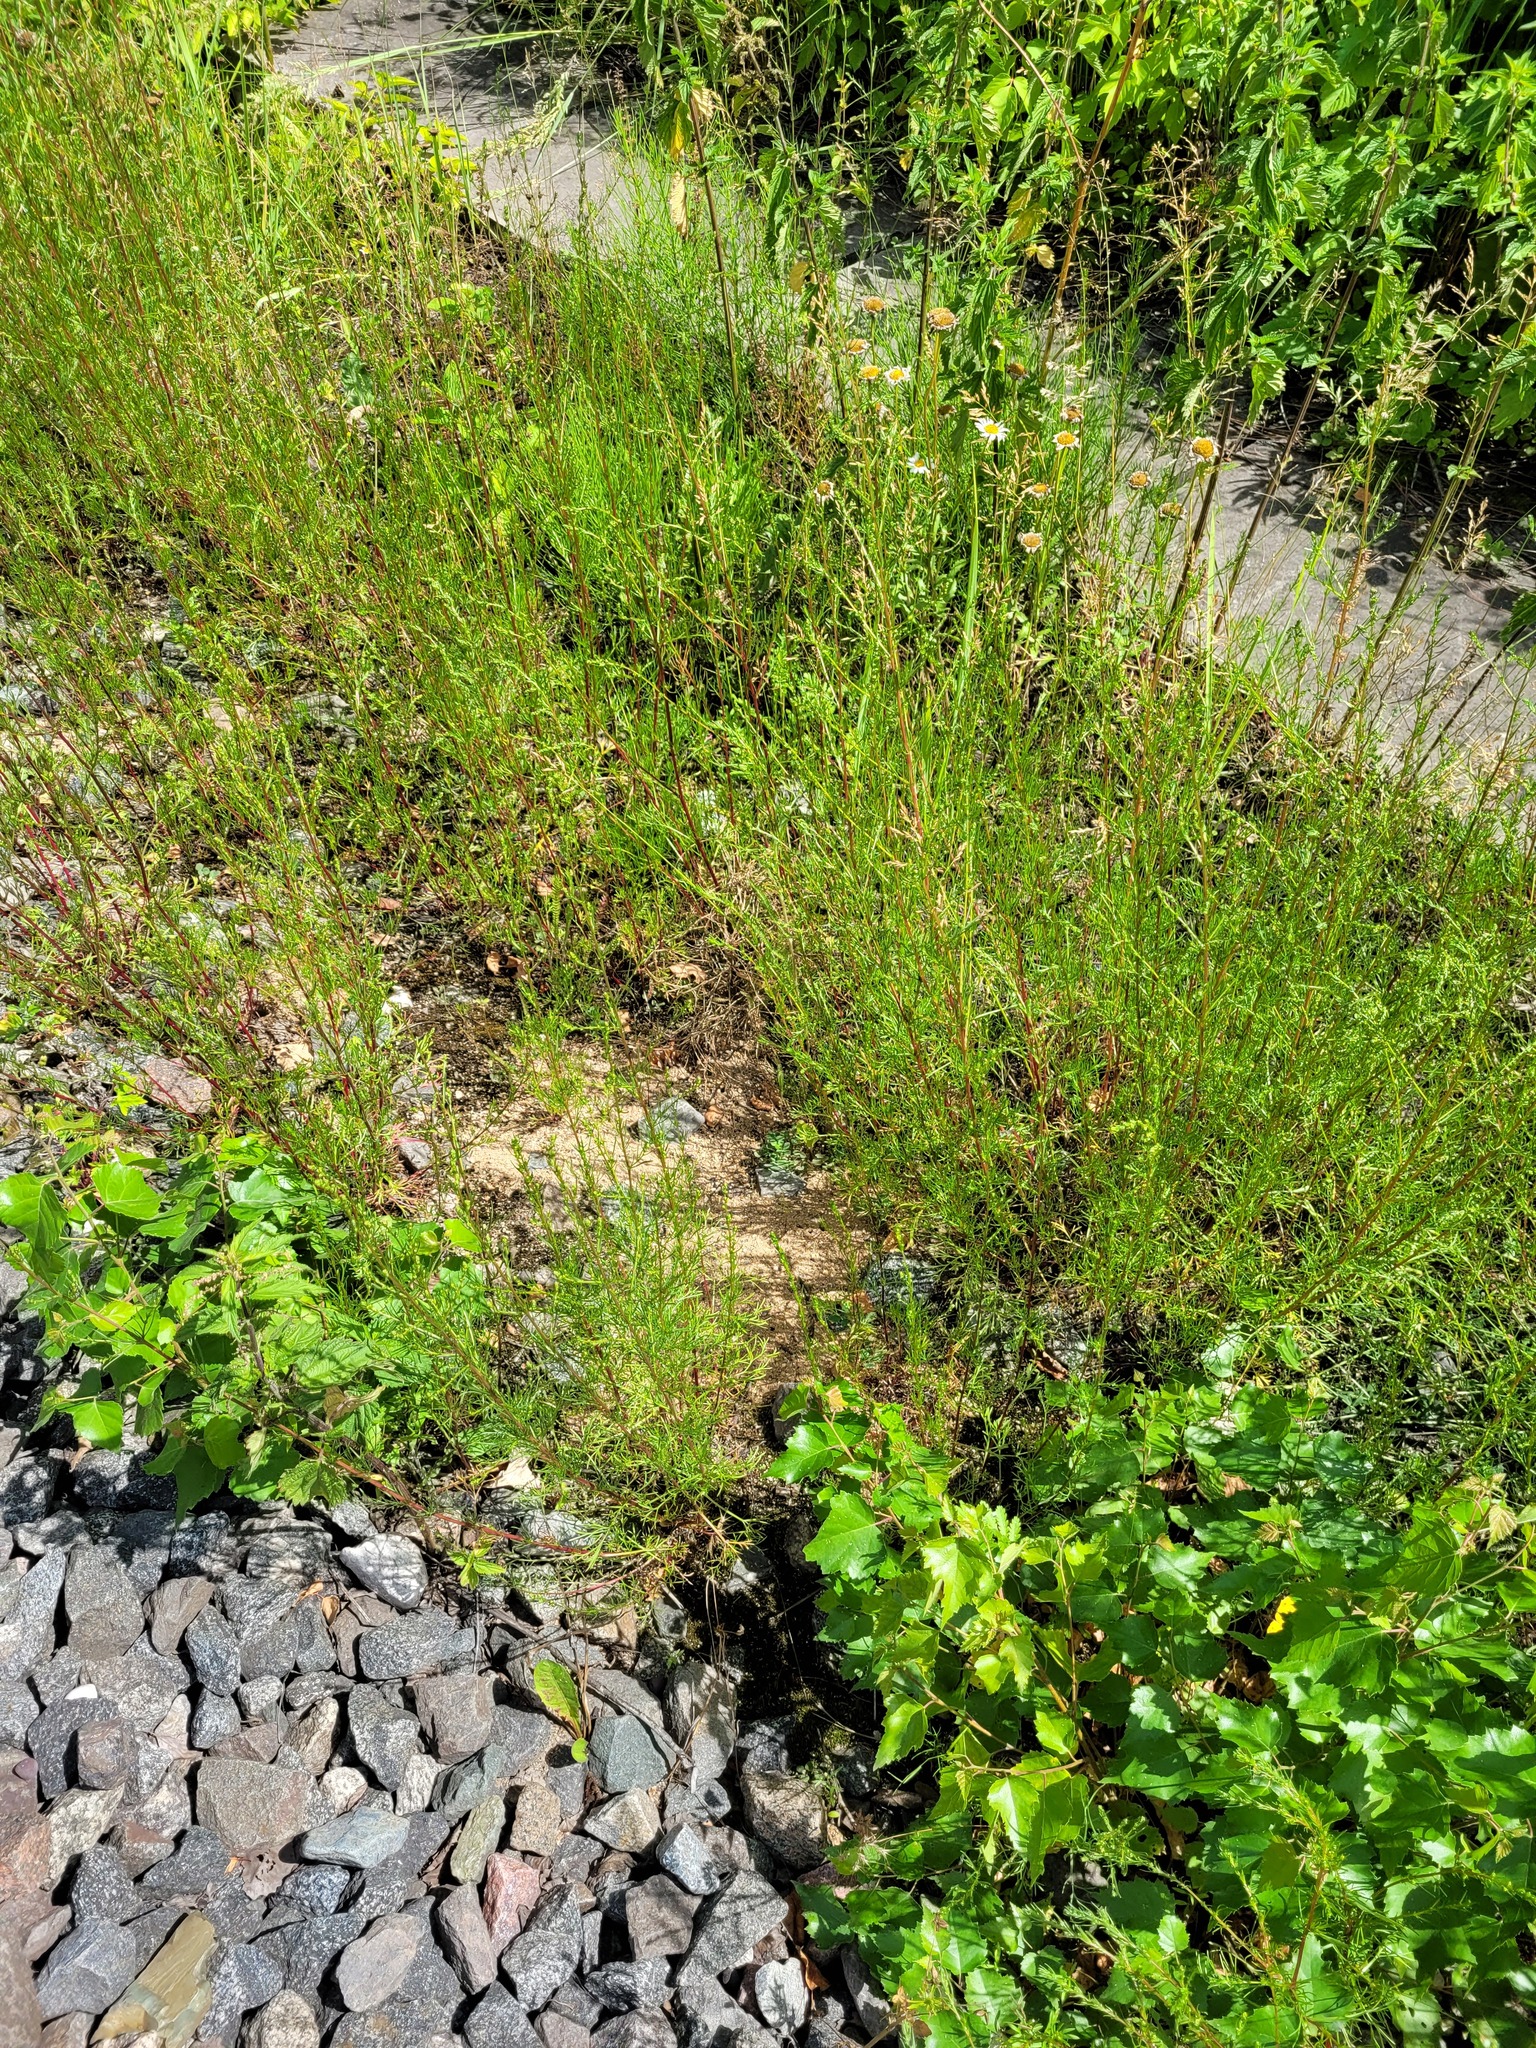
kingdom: Plantae
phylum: Tracheophyta
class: Magnoliopsida
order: Asterales
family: Asteraceae
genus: Artemisia
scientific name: Artemisia campestris
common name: Field wormwood
